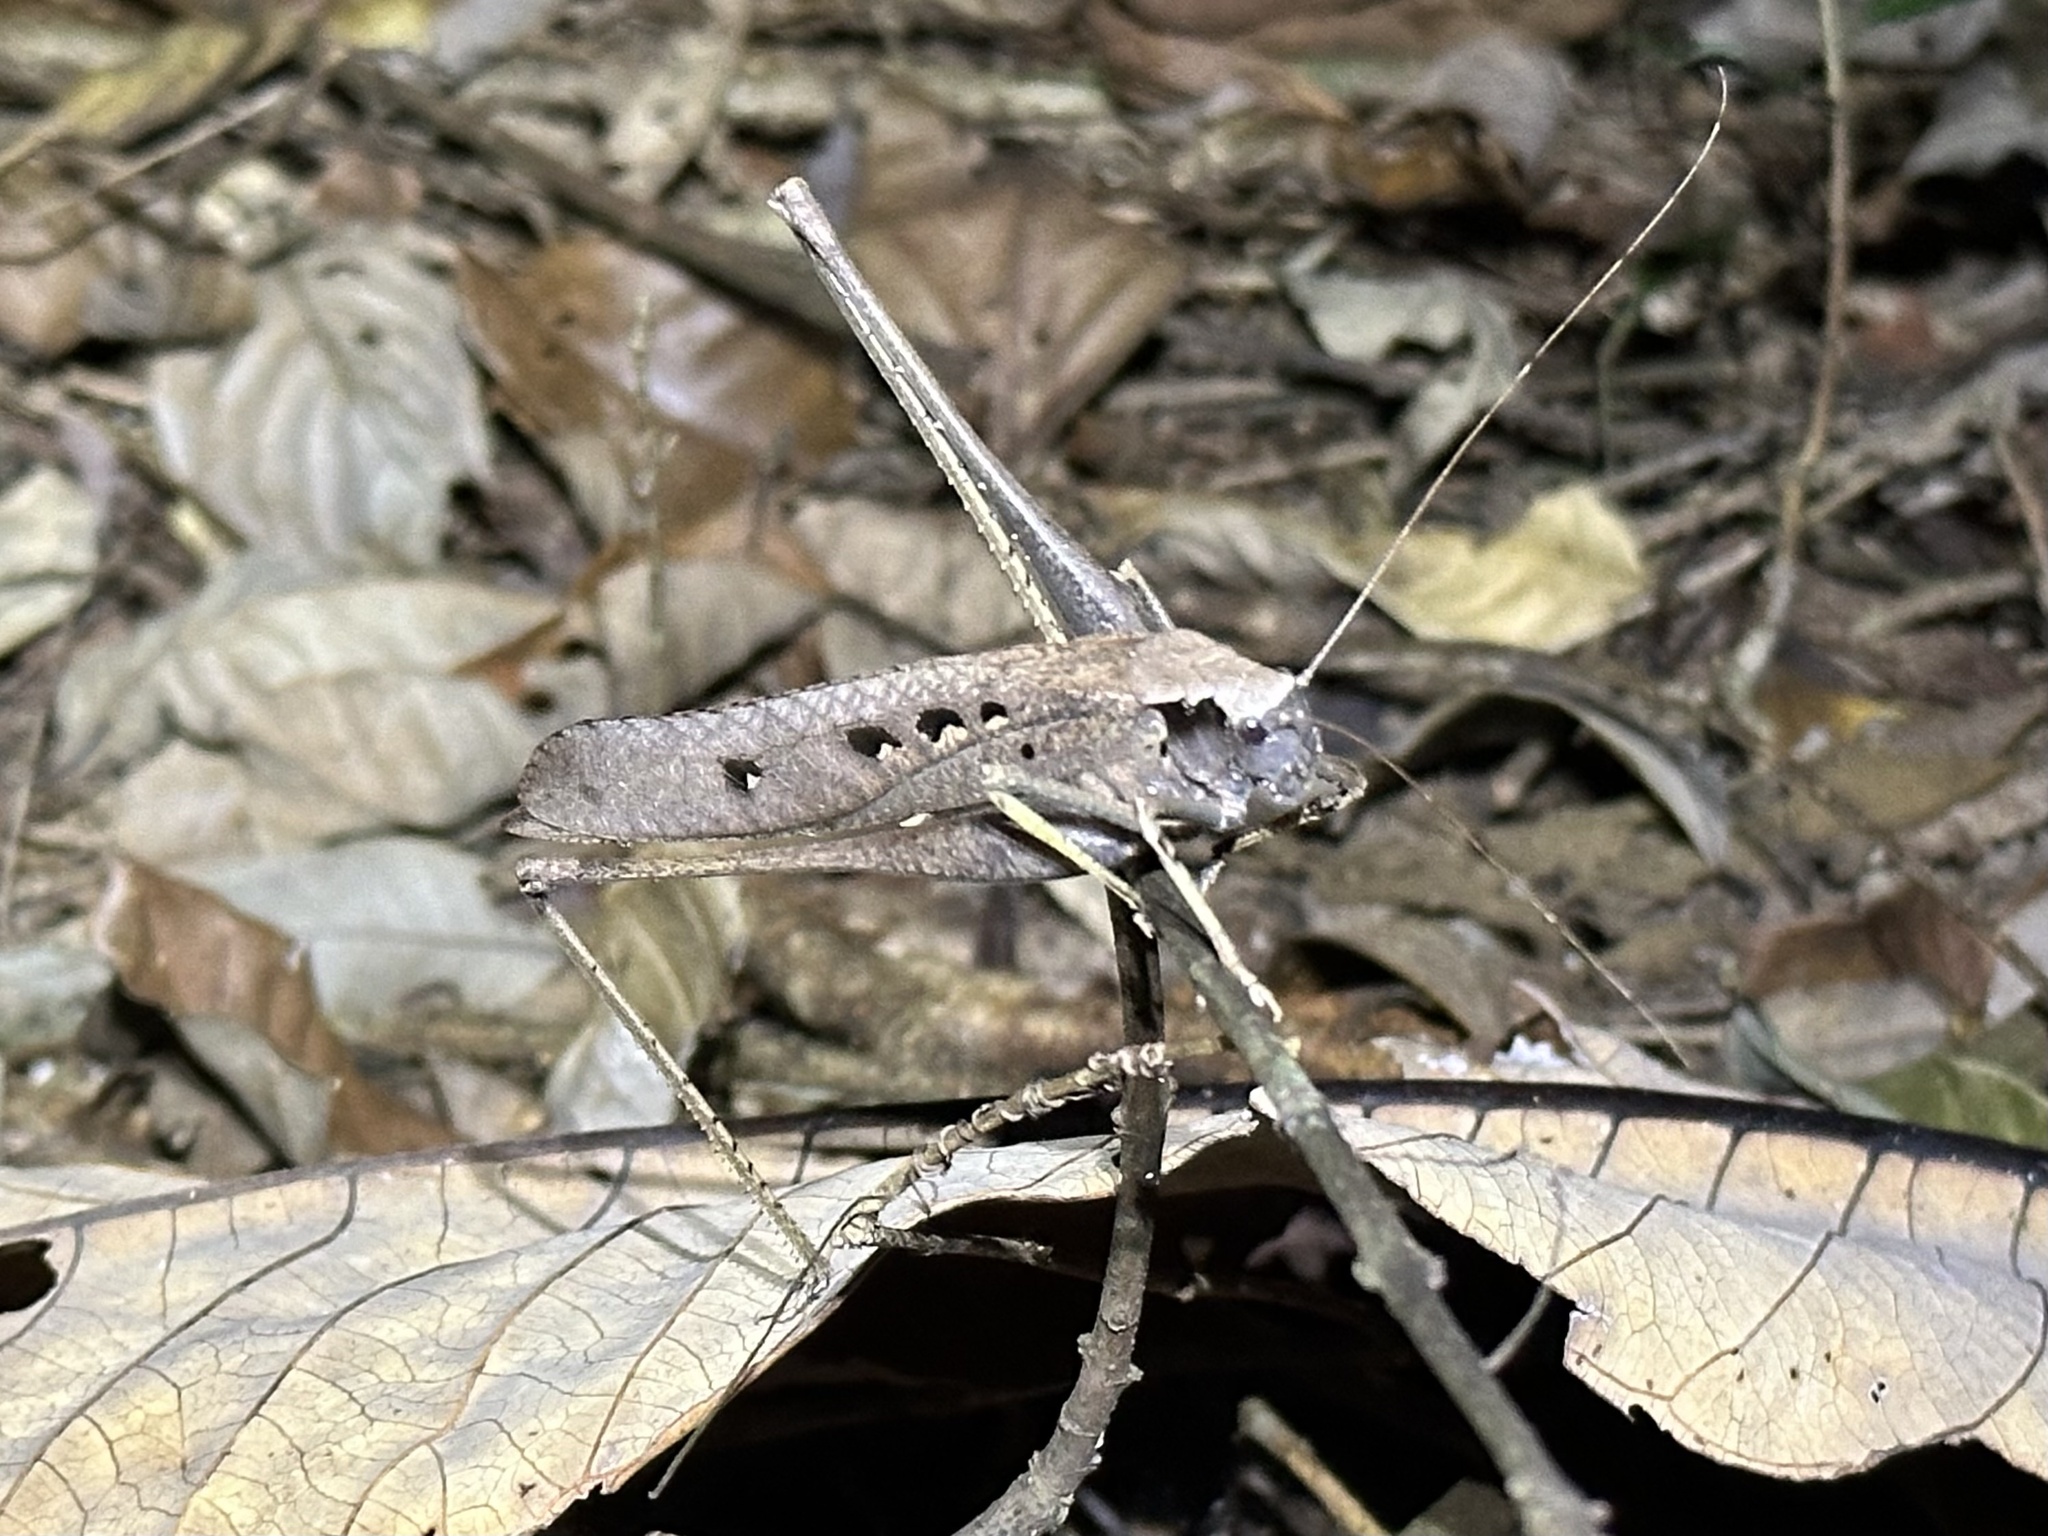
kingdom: Animalia
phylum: Arthropoda
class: Insecta
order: Orthoptera
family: Tettigoniidae
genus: Mecopoda
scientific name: Mecopoda elongata
